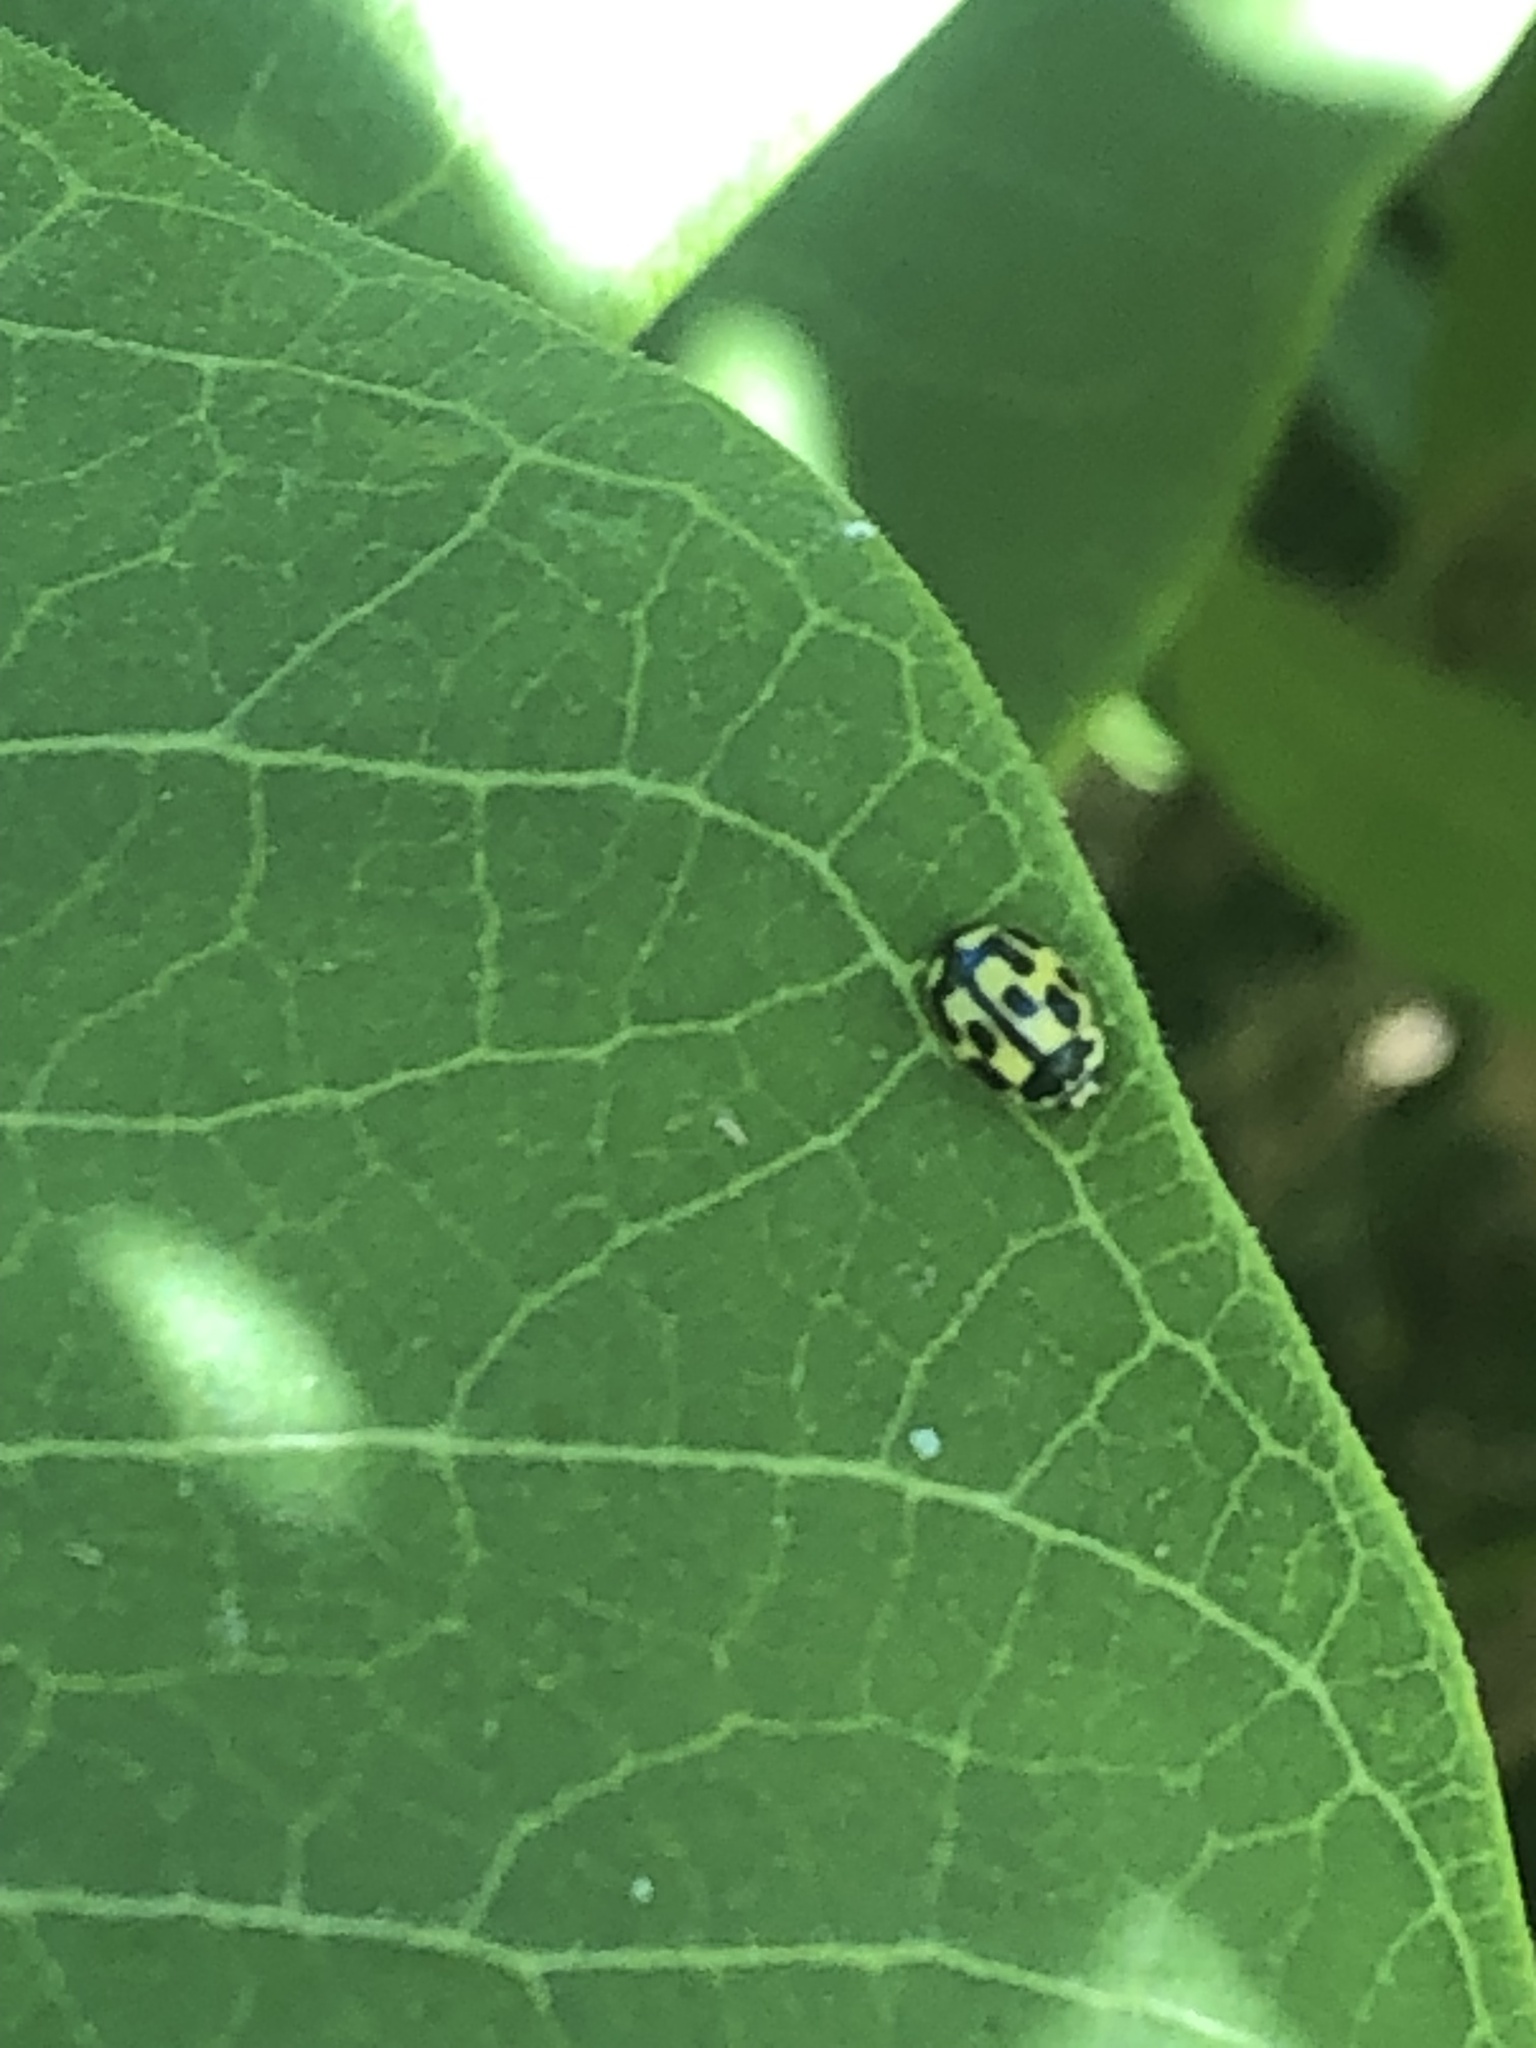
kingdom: Animalia
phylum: Arthropoda
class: Insecta
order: Coleoptera
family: Coccinellidae
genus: Propylaea
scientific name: Propylaea quatuordecimpunctata
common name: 14-spotted ladybird beetle
